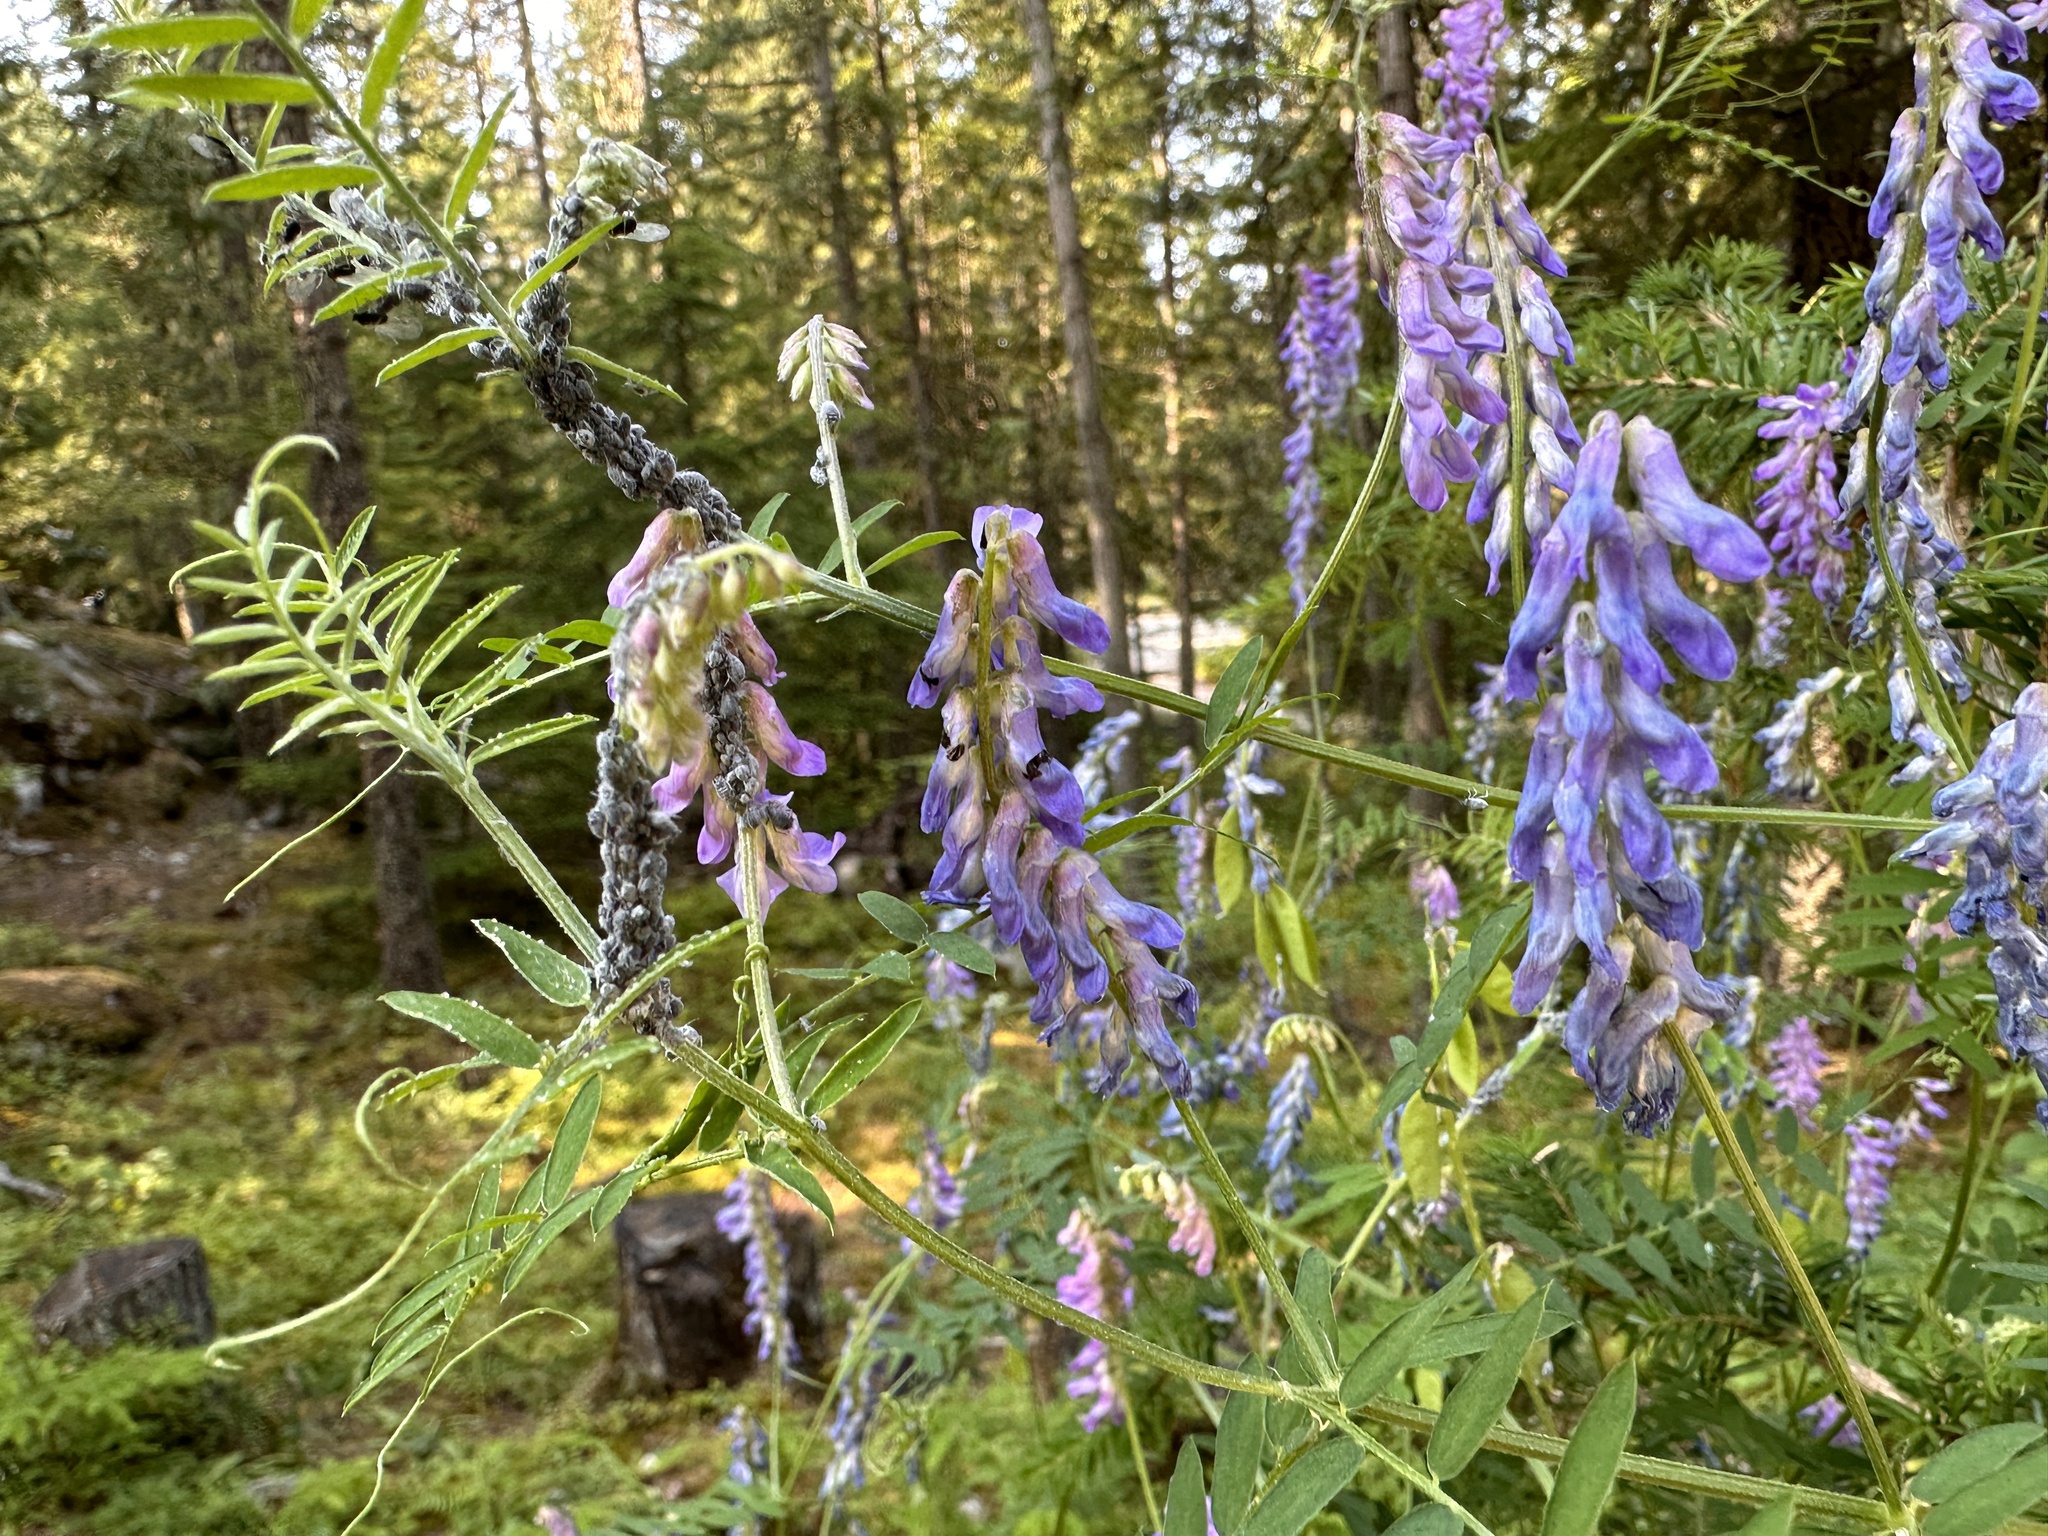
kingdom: Plantae
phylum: Tracheophyta
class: Magnoliopsida
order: Fabales
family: Fabaceae
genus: Vicia
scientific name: Vicia cracca
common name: Bird vetch
